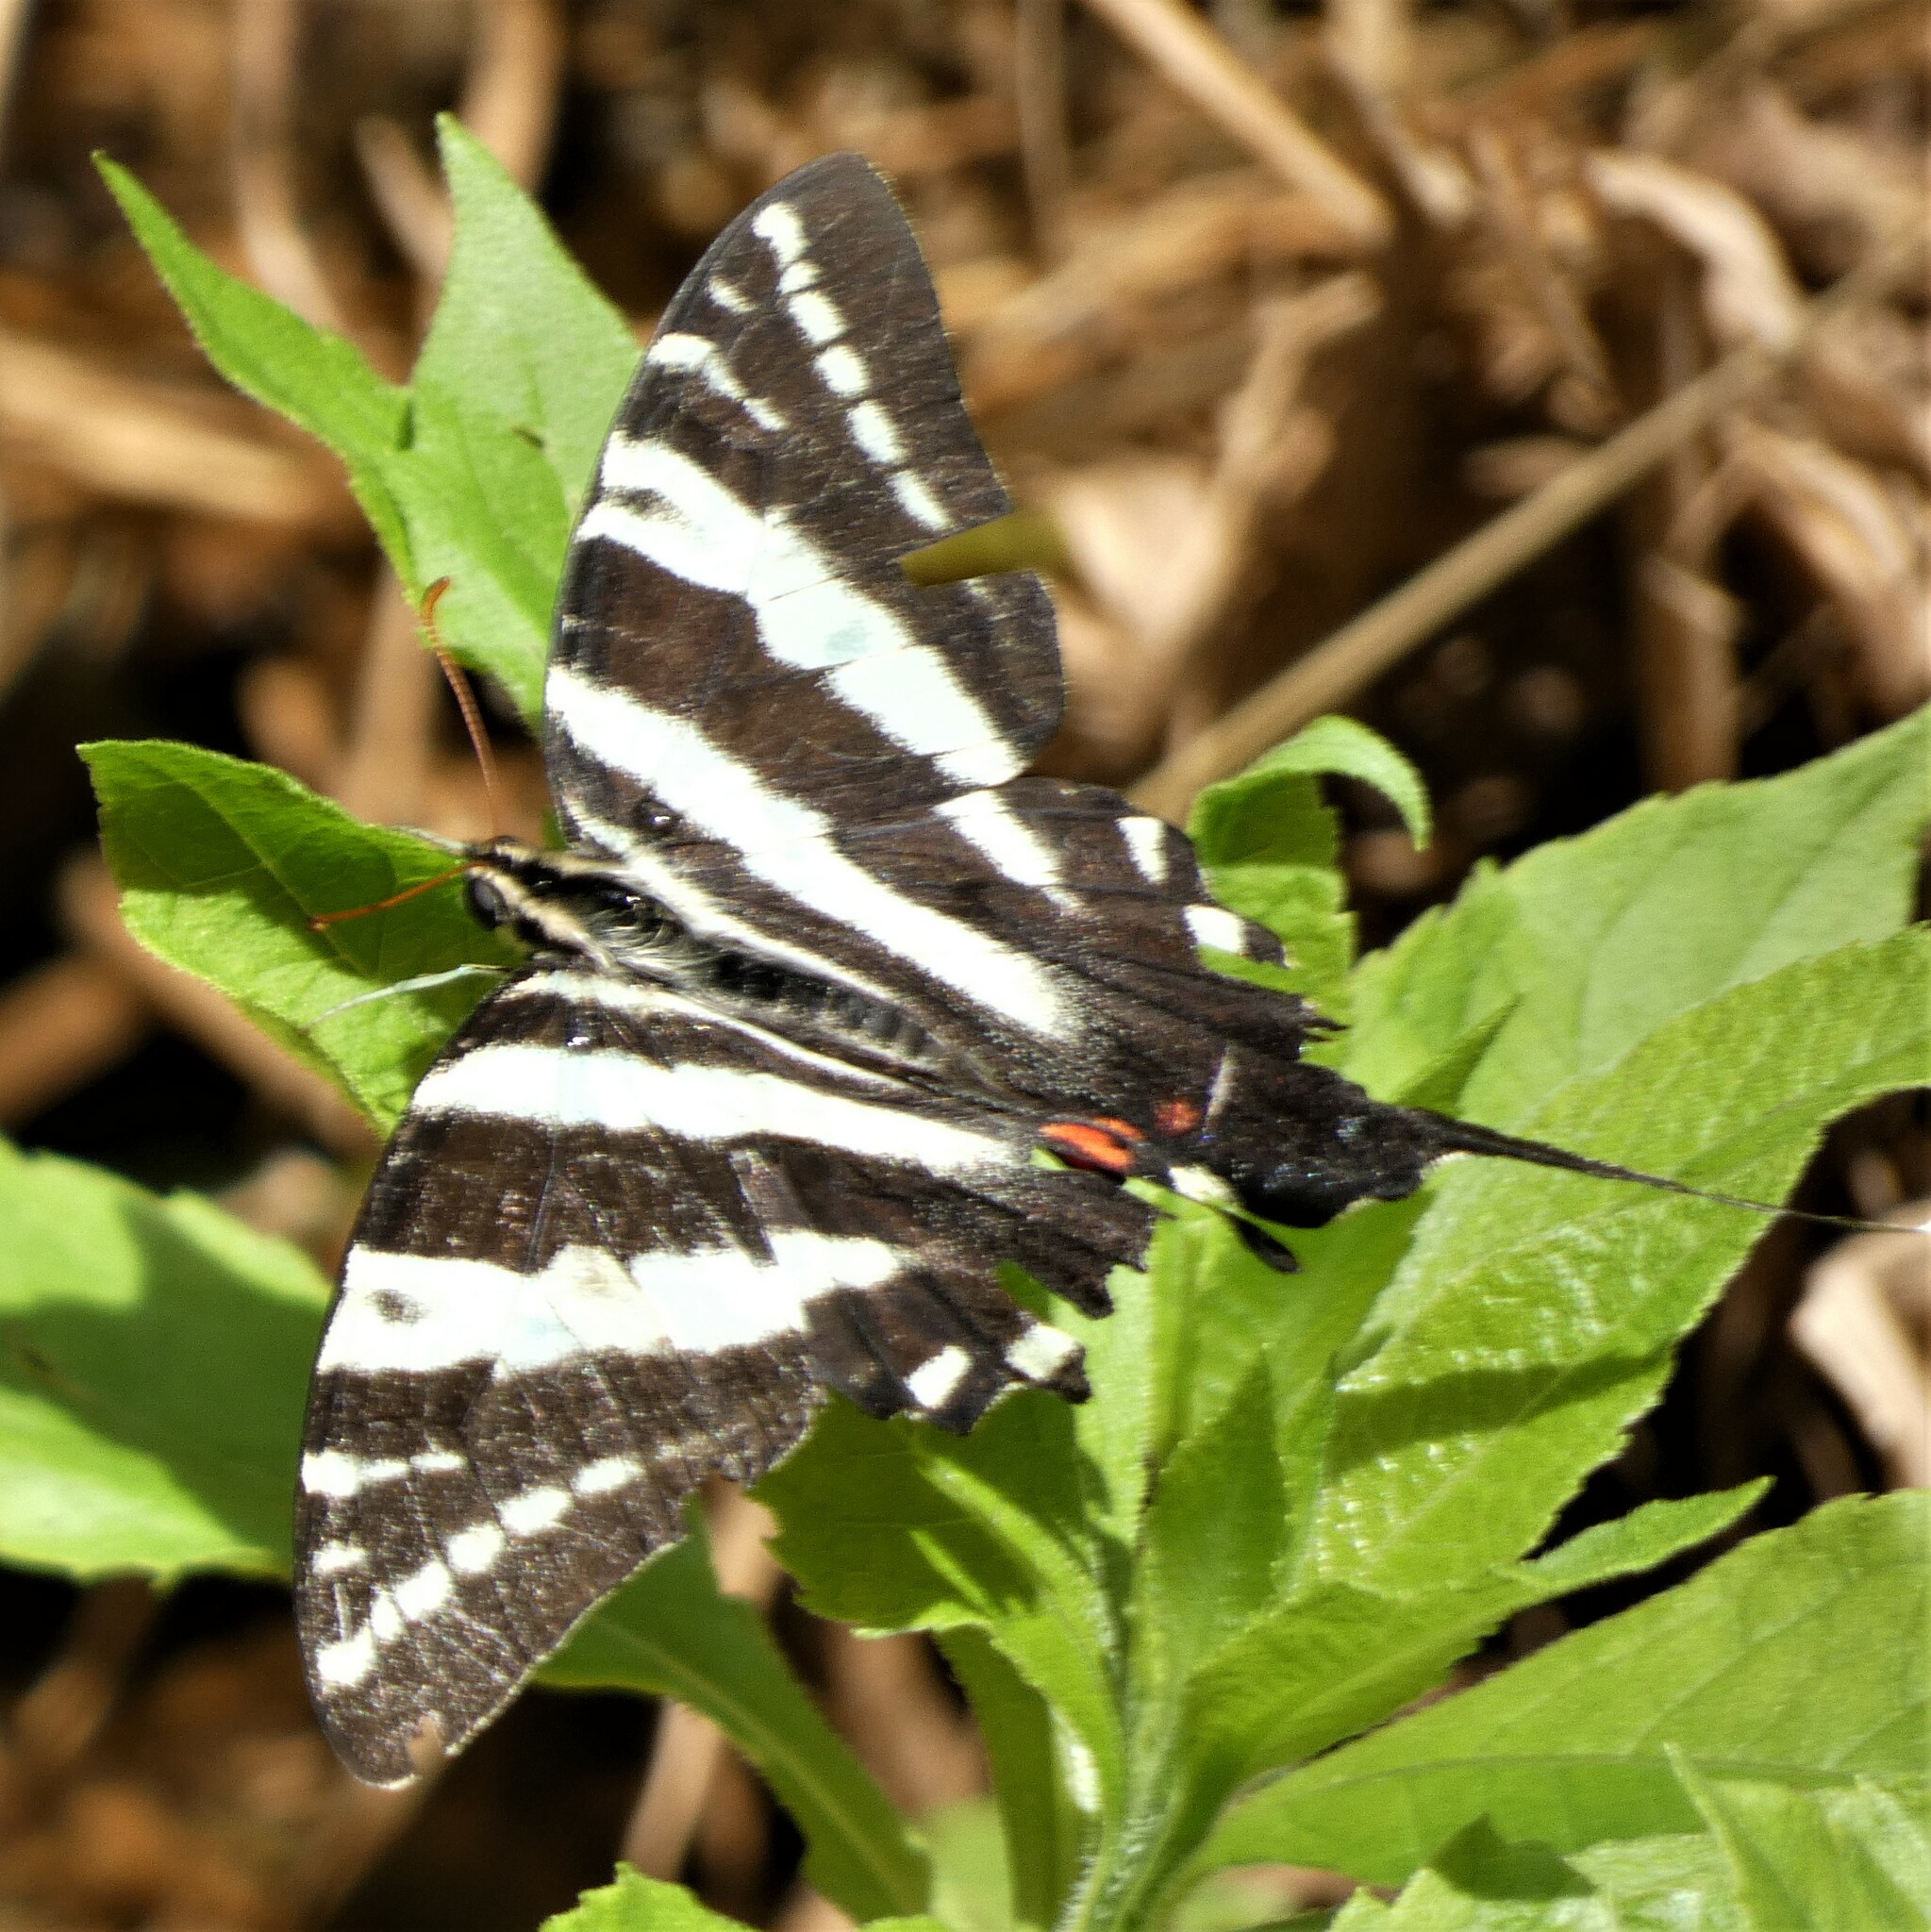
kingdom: Animalia
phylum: Arthropoda
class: Insecta
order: Lepidoptera
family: Papilionidae
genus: Protographium
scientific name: Protographium marcellus
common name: Zebra swallowtail
